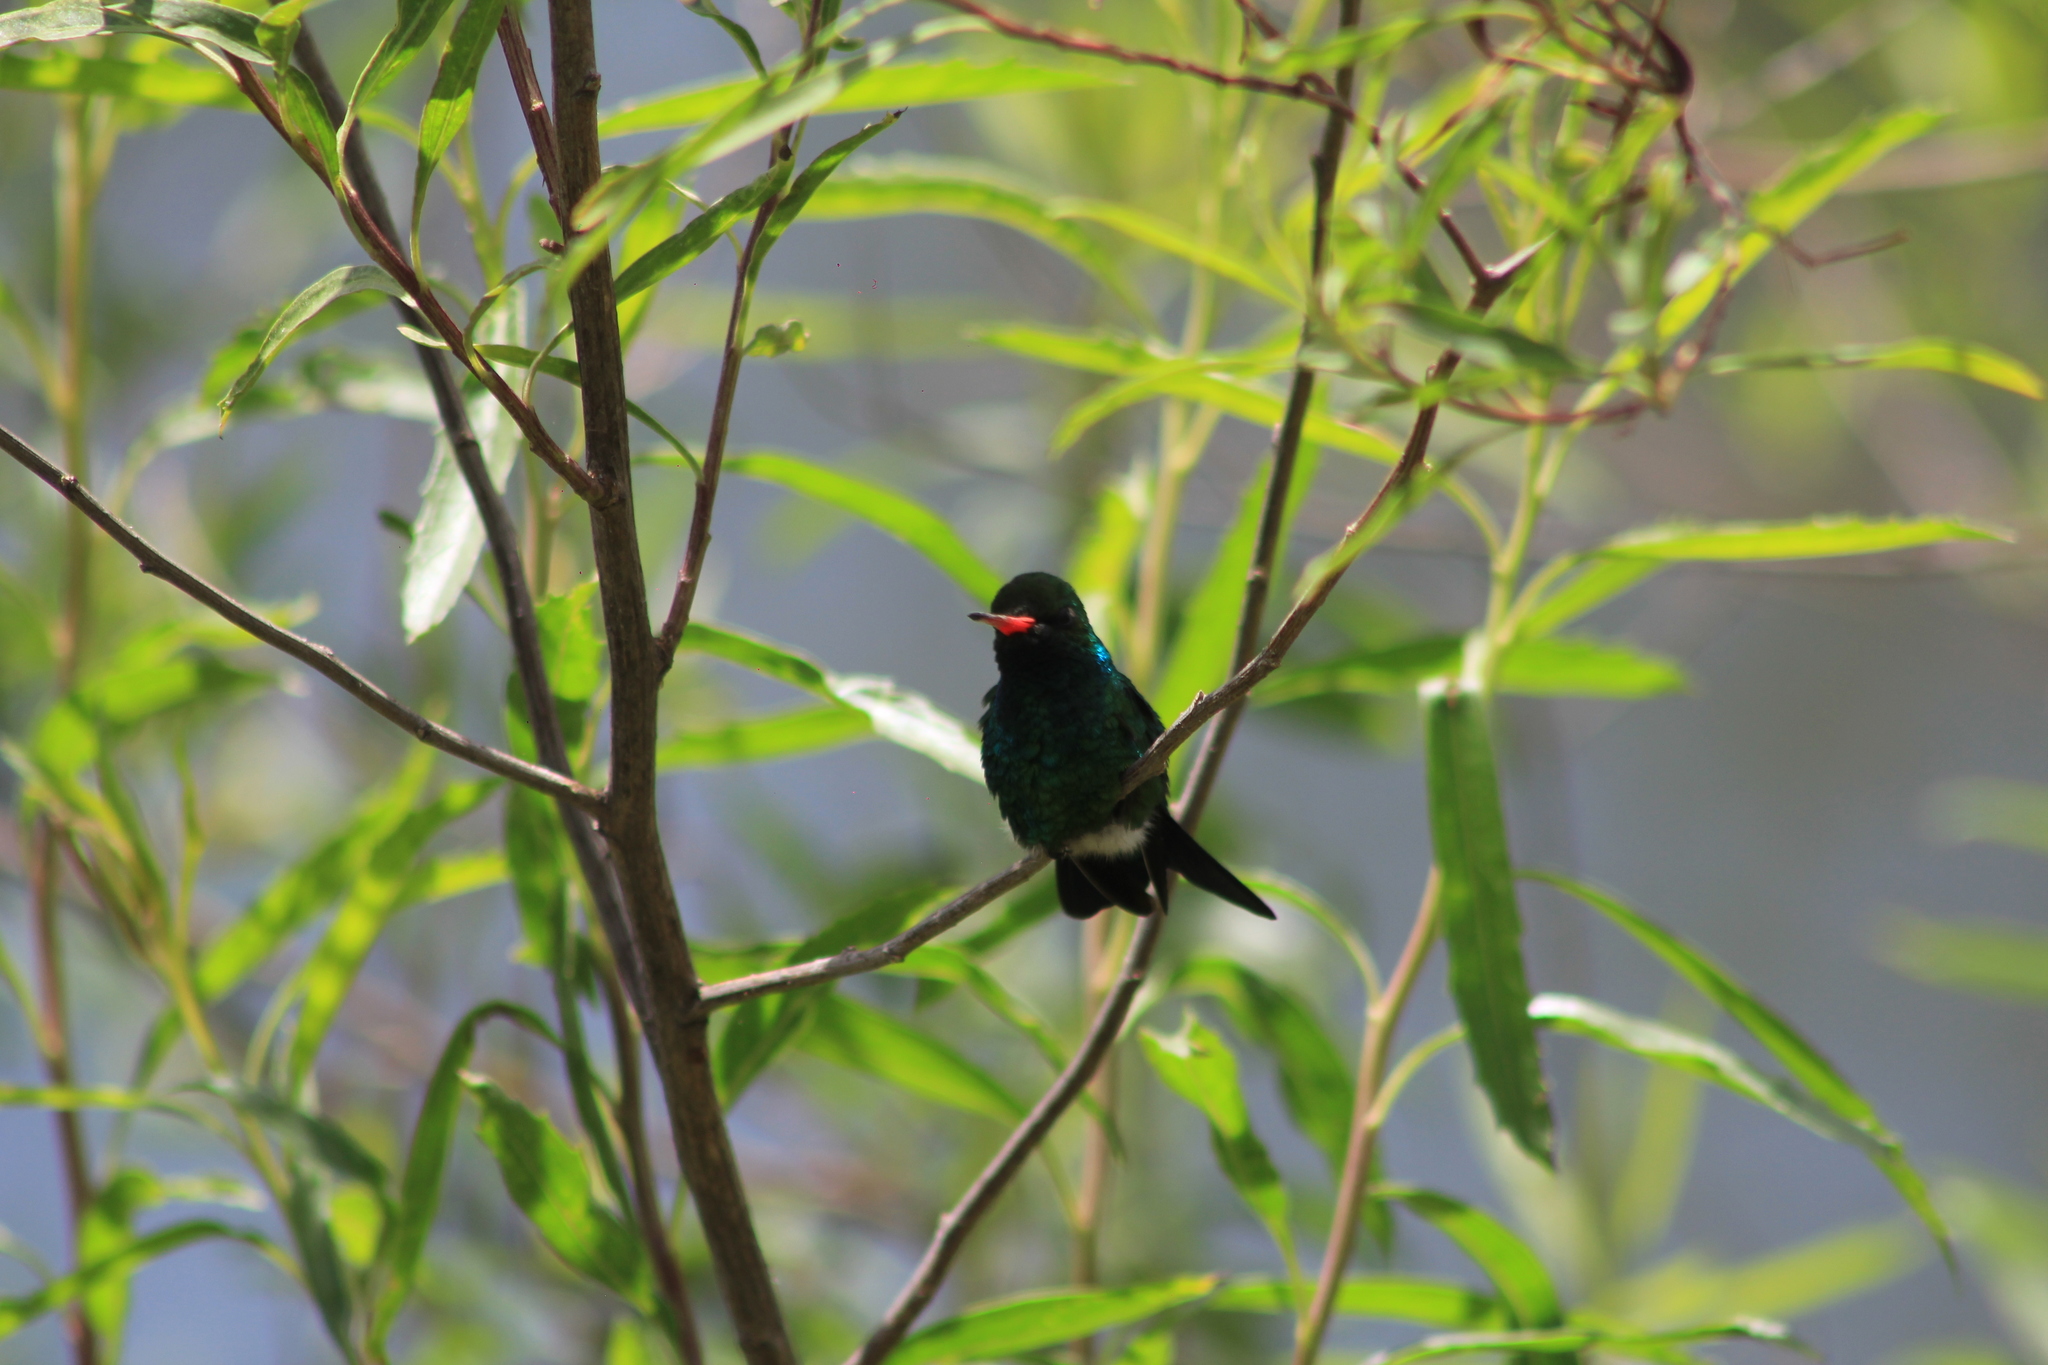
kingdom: Animalia
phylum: Chordata
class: Aves
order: Apodiformes
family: Trochilidae
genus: Chlorostilbon
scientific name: Chlorostilbon lucidus
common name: Glittering-bellied emerald
